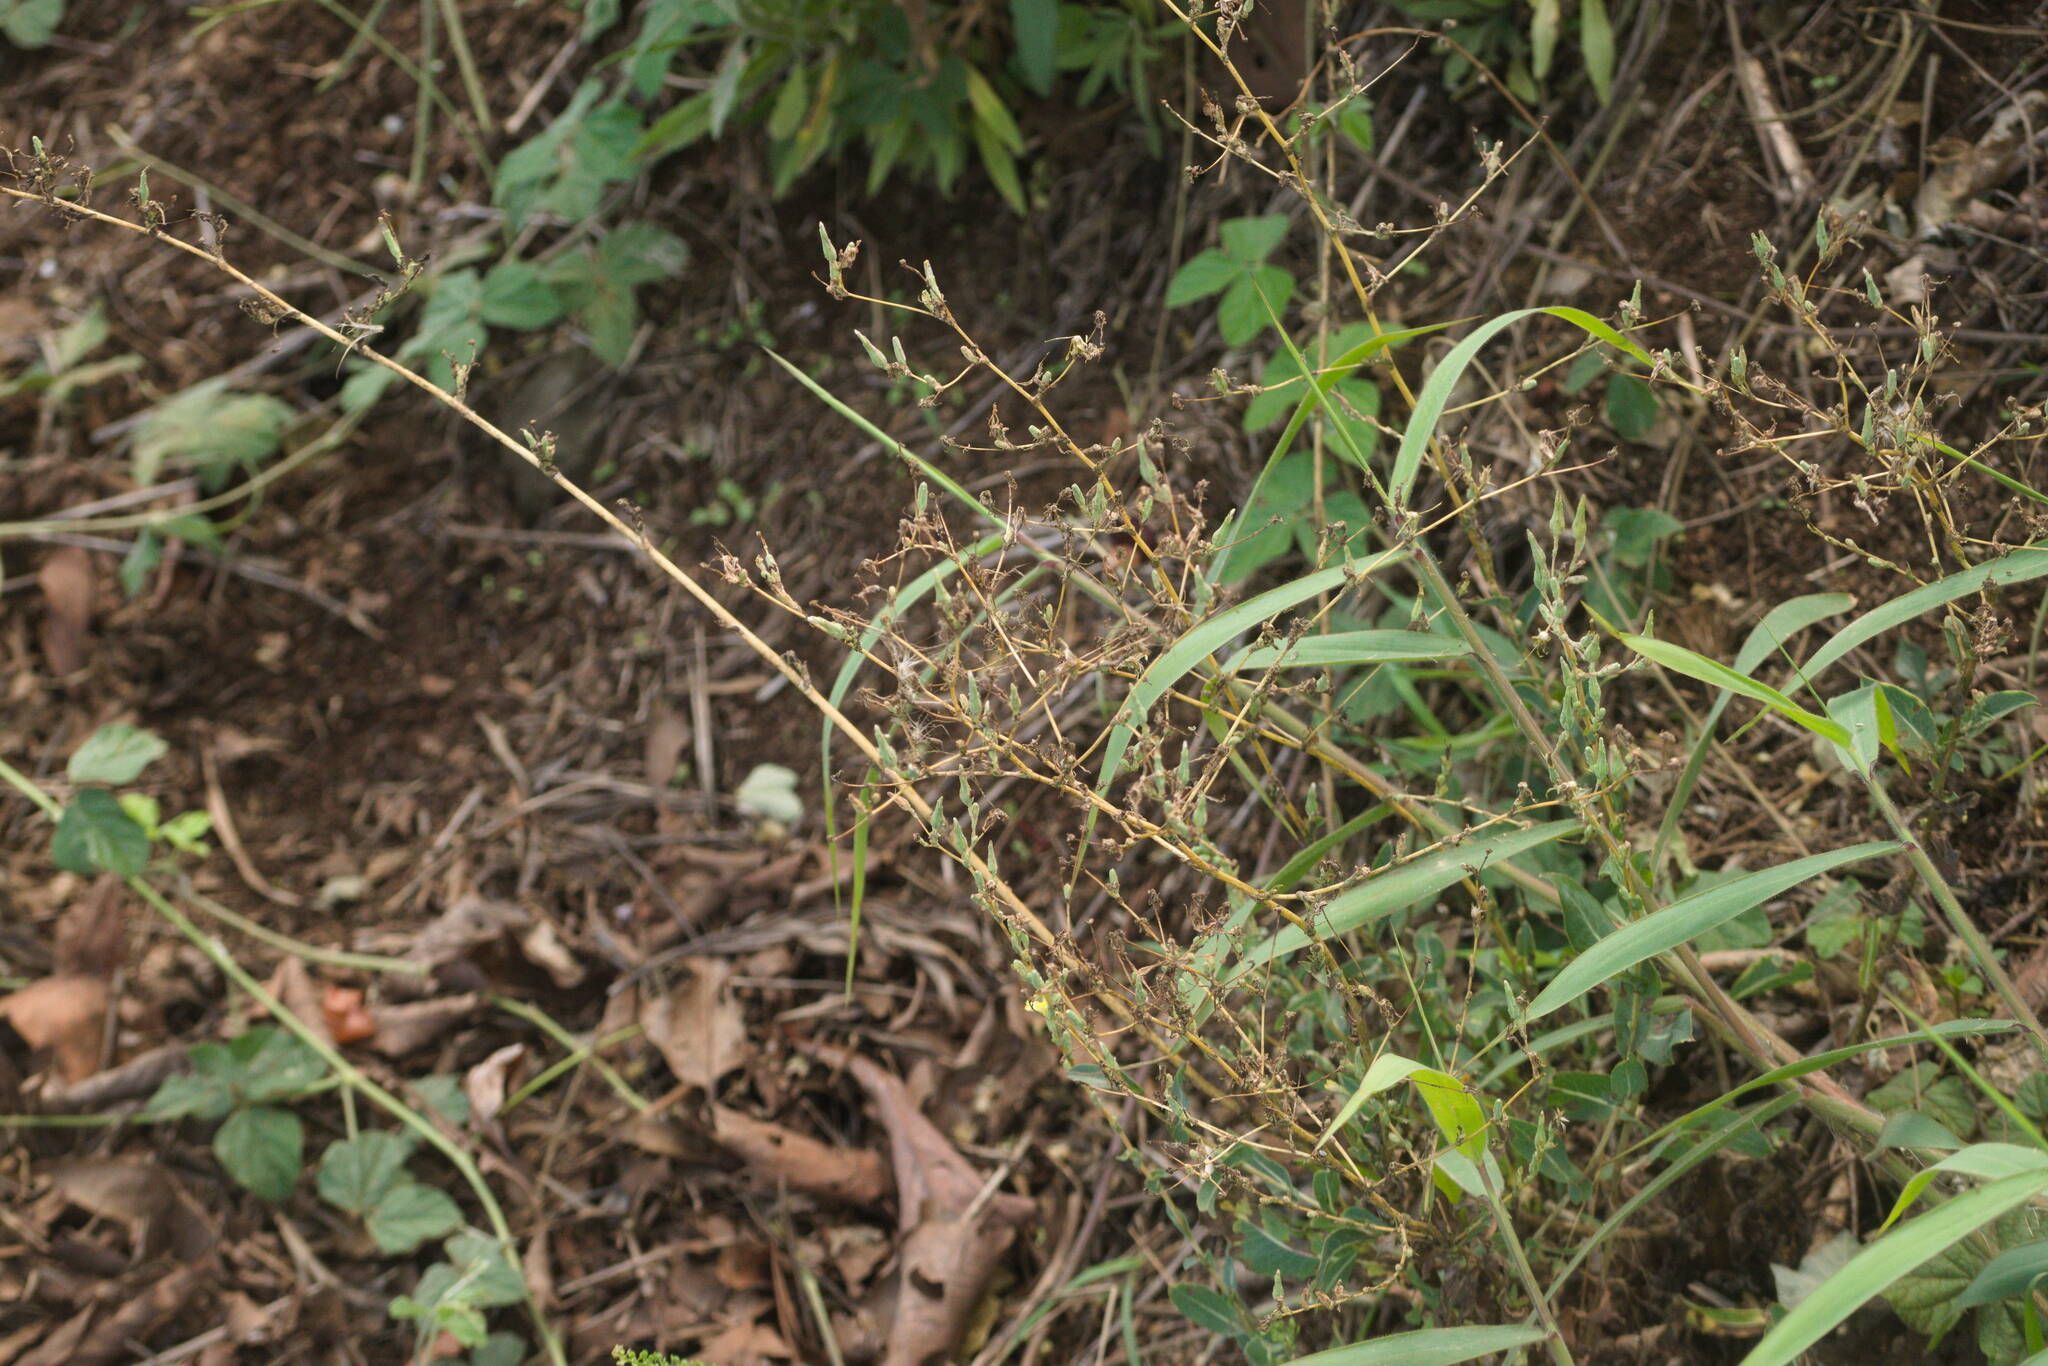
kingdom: Plantae
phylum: Tracheophyta
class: Magnoliopsida
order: Asterales
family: Asteraceae
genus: Lactuca
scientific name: Lactuca serriola
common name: Prickly lettuce
